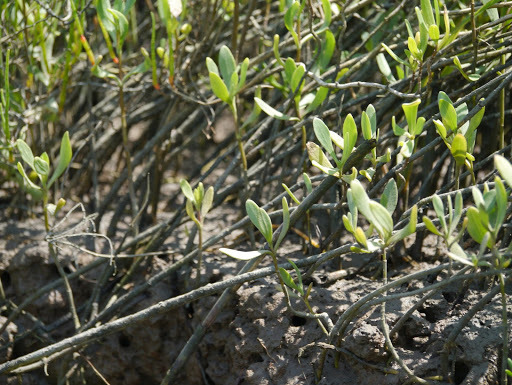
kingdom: Plantae
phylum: Tracheophyta
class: Magnoliopsida
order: Asterales
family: Asteraceae
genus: Borrichia
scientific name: Borrichia frutescens
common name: Sea oxeye
